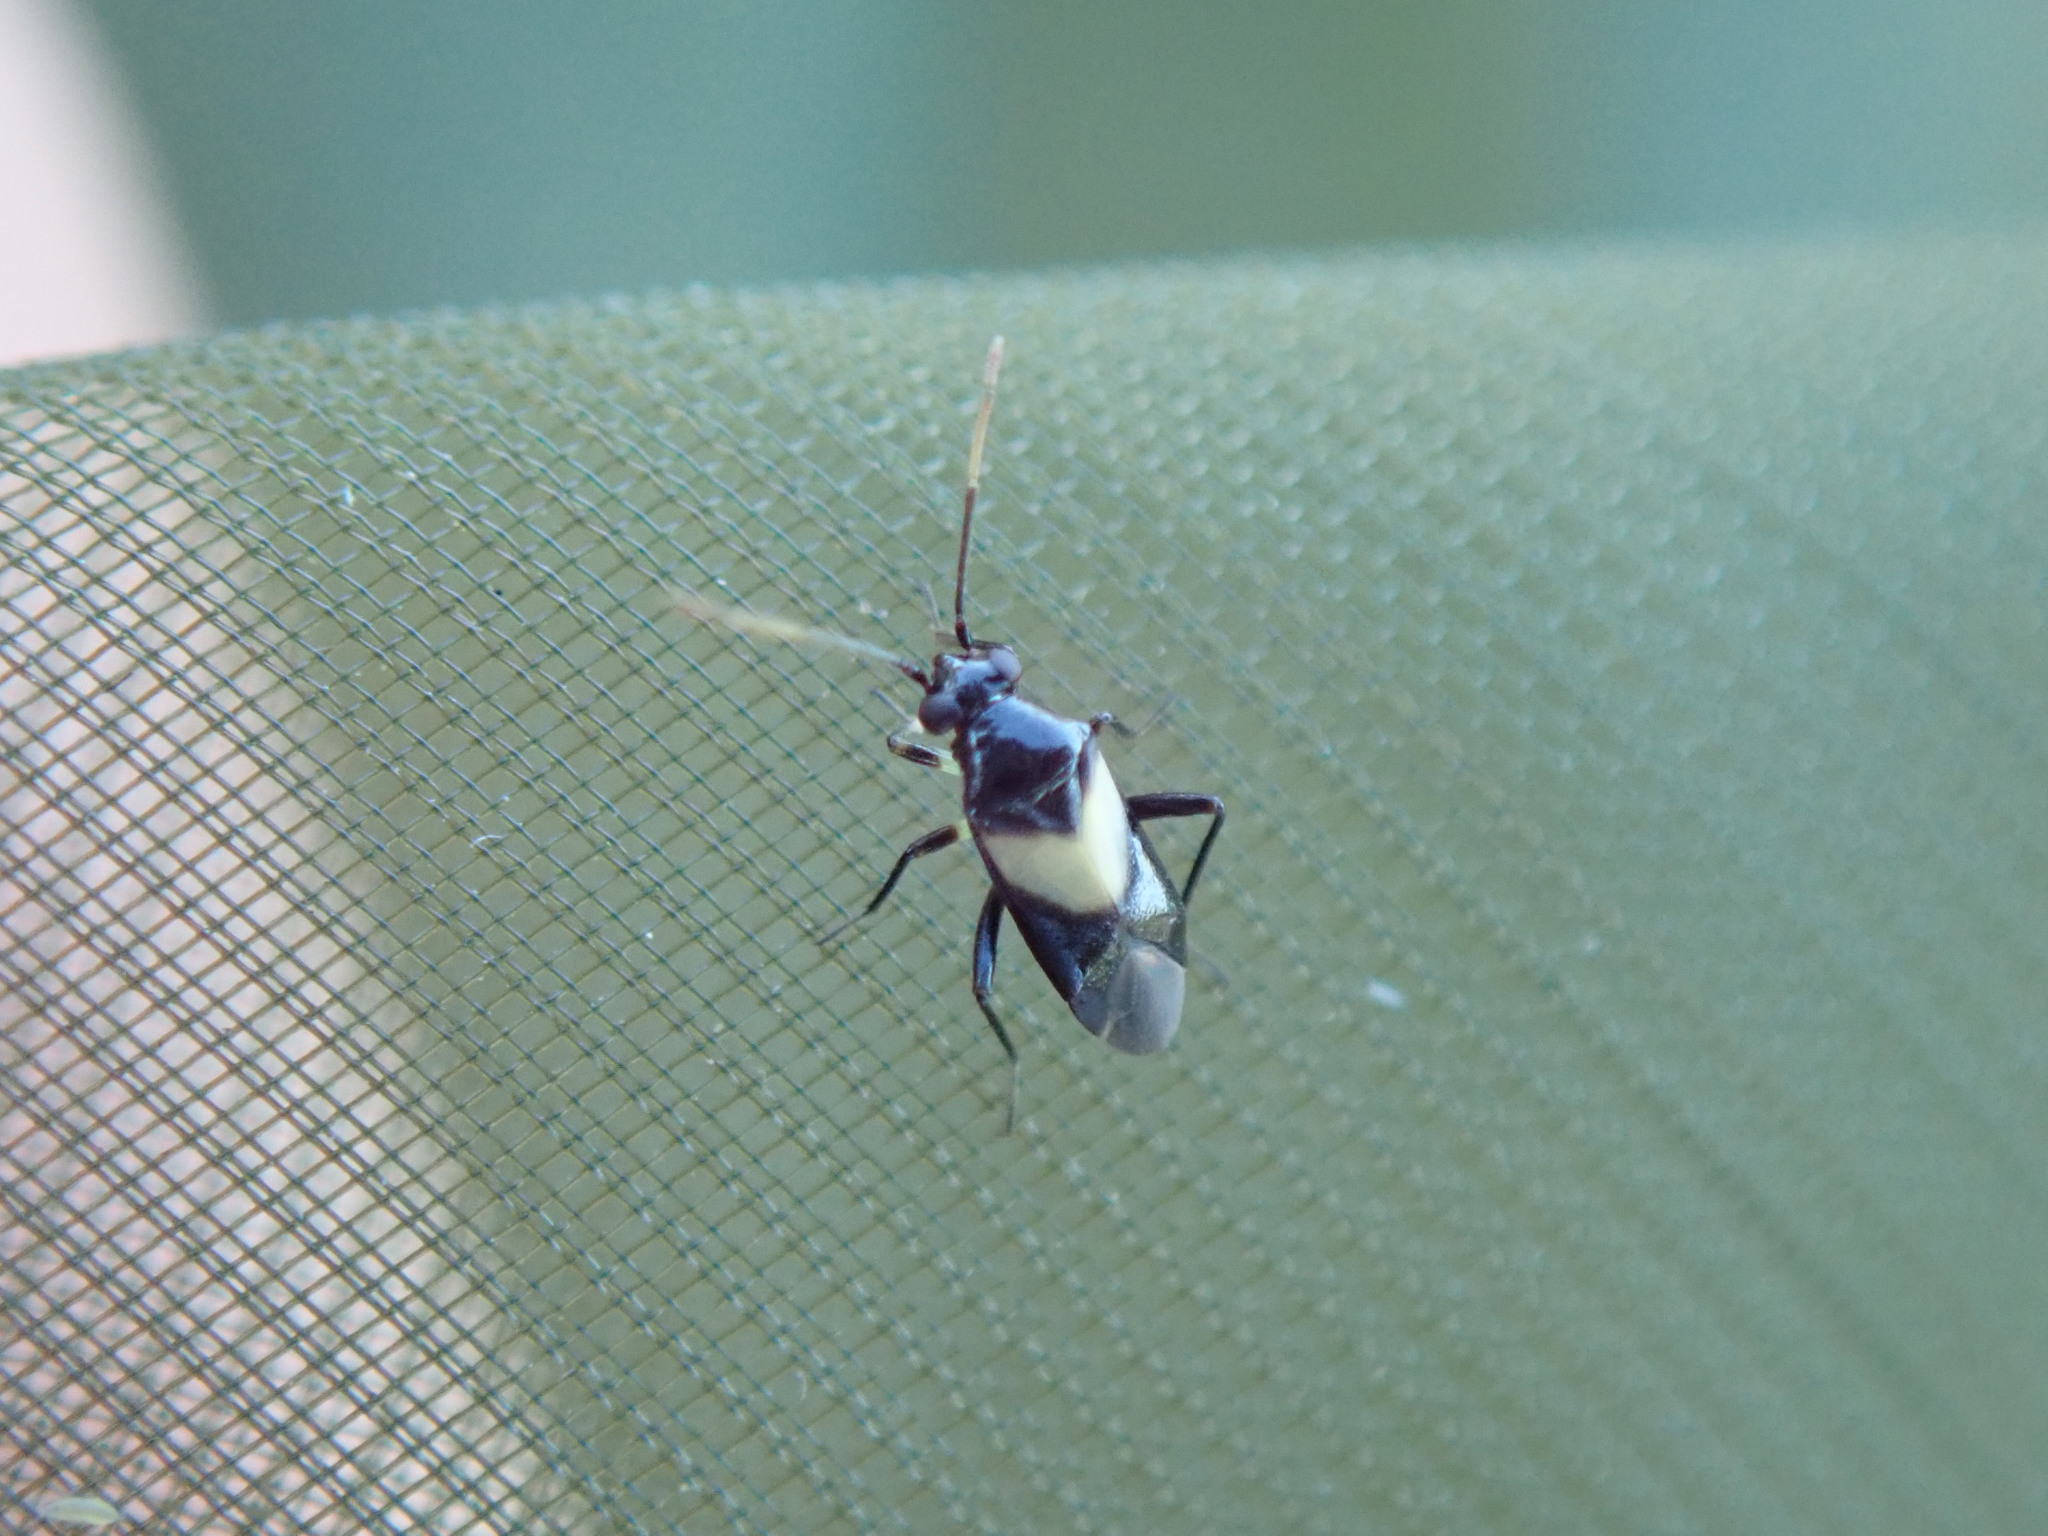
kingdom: Animalia
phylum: Arthropoda
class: Insecta
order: Hemiptera
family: Miridae
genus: Auchenocrepis
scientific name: Auchenocrepis minutissima
